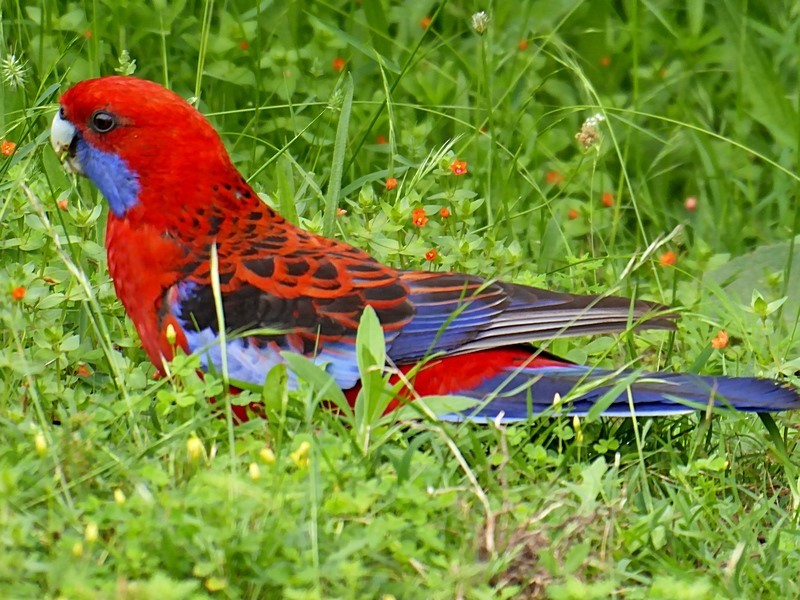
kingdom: Animalia
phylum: Chordata
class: Aves
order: Psittaciformes
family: Psittacidae
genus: Platycercus
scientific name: Platycercus elegans
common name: Crimson rosella
